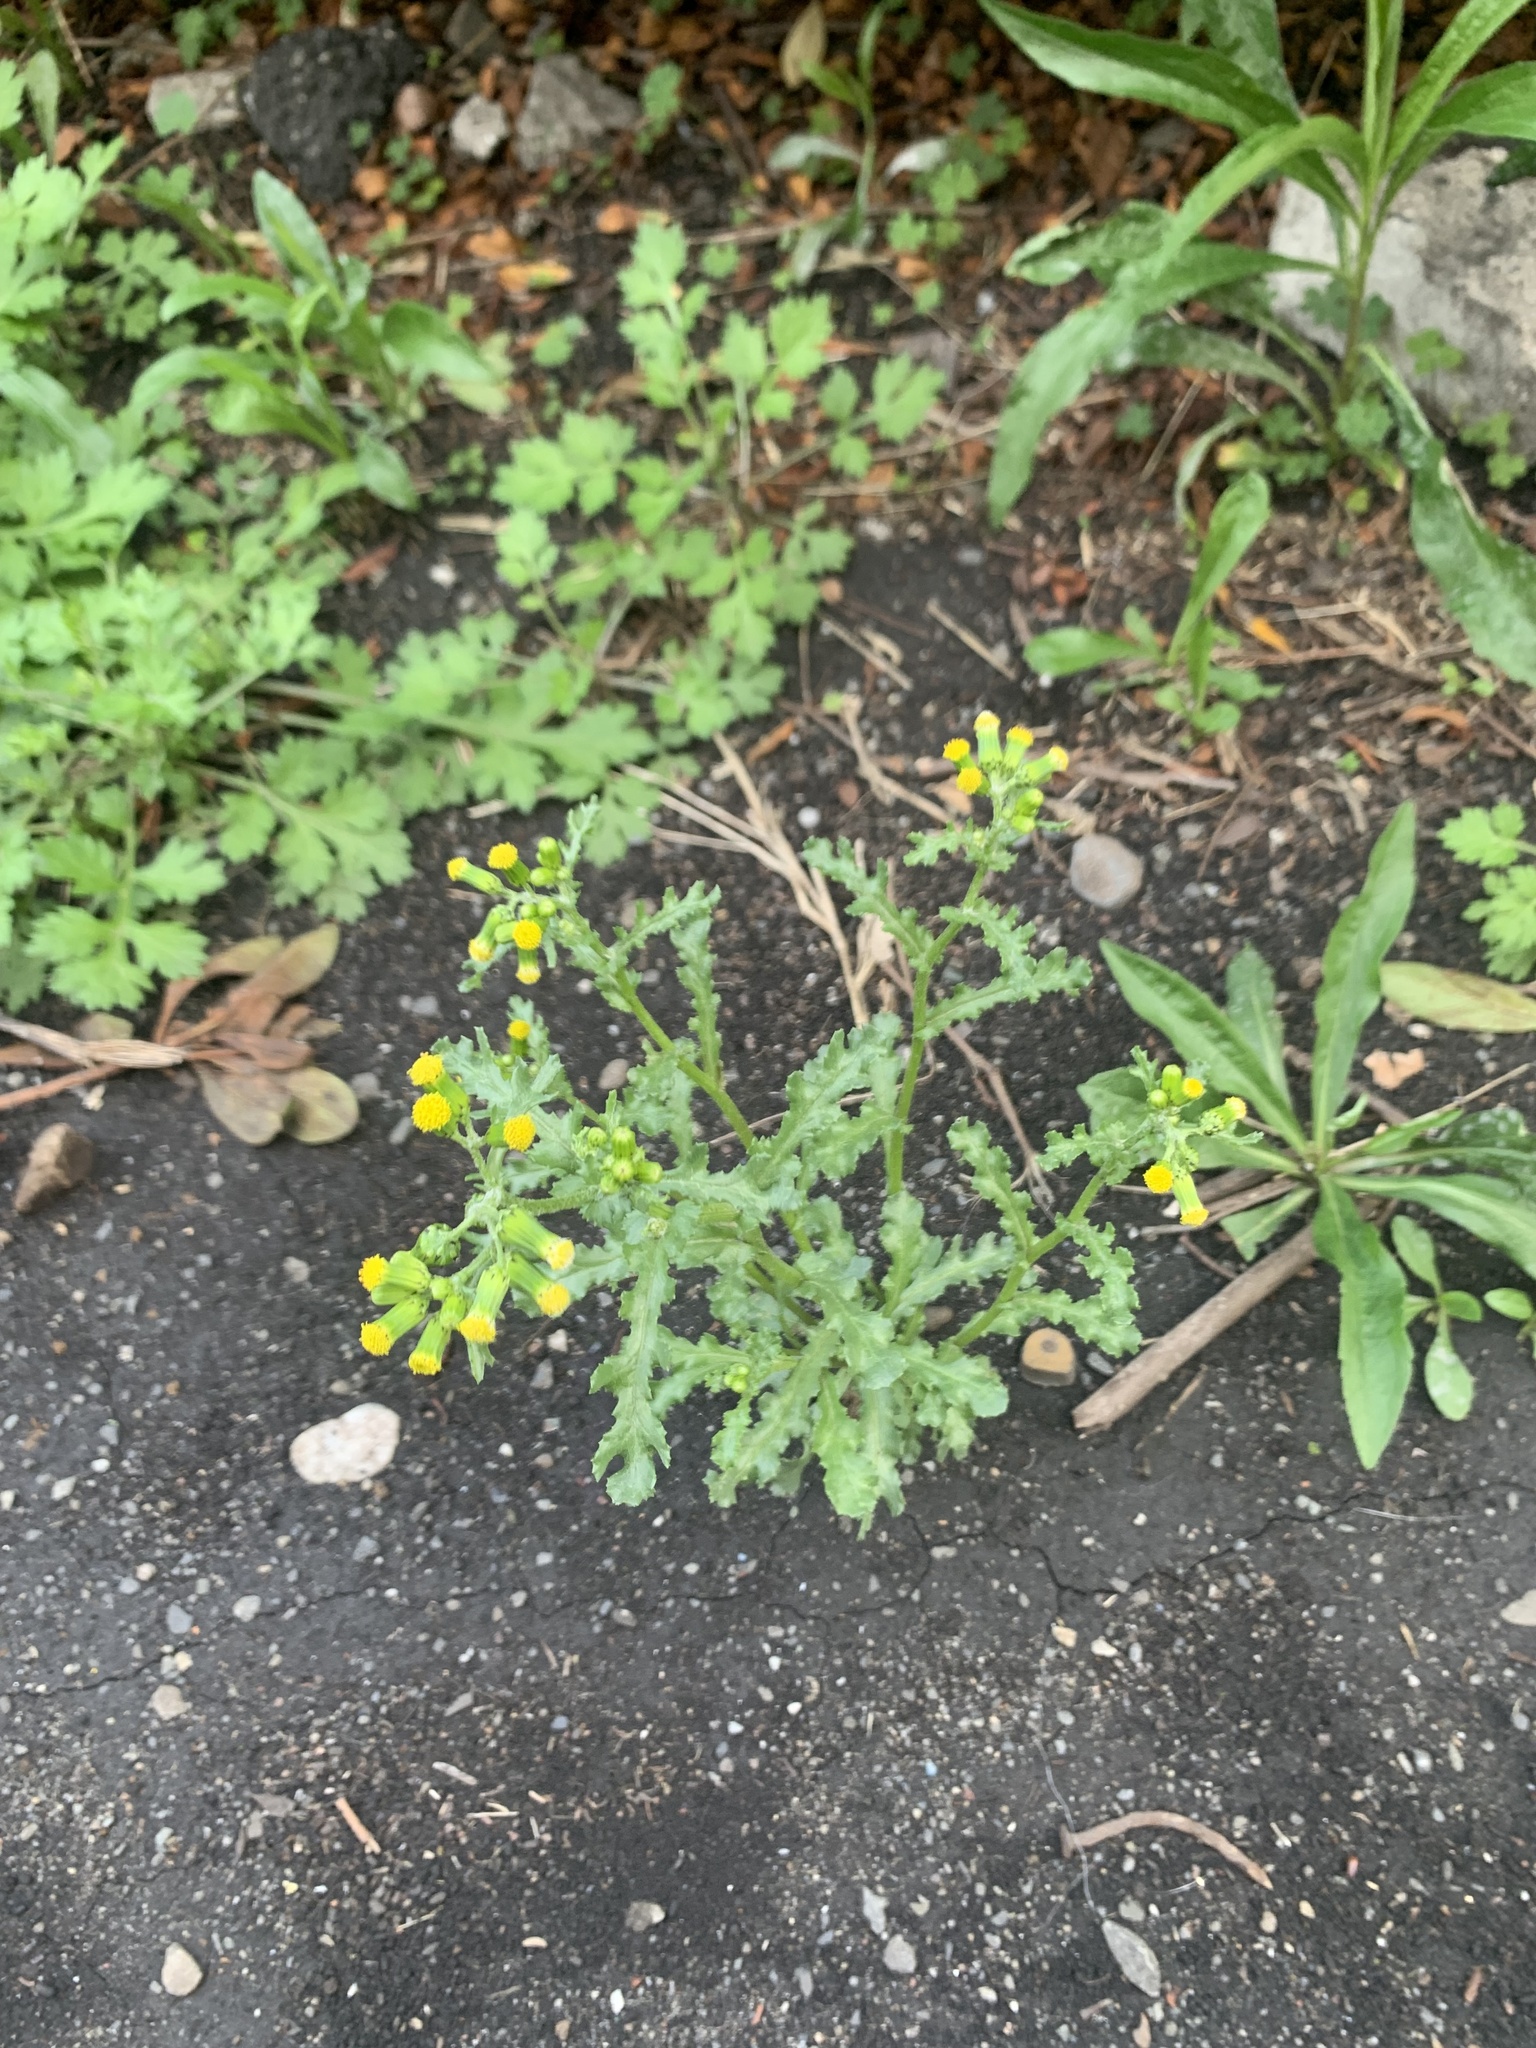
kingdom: Plantae
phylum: Tracheophyta
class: Magnoliopsida
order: Asterales
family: Asteraceae
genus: Senecio
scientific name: Senecio vulgaris
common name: Old-man-in-the-spring
